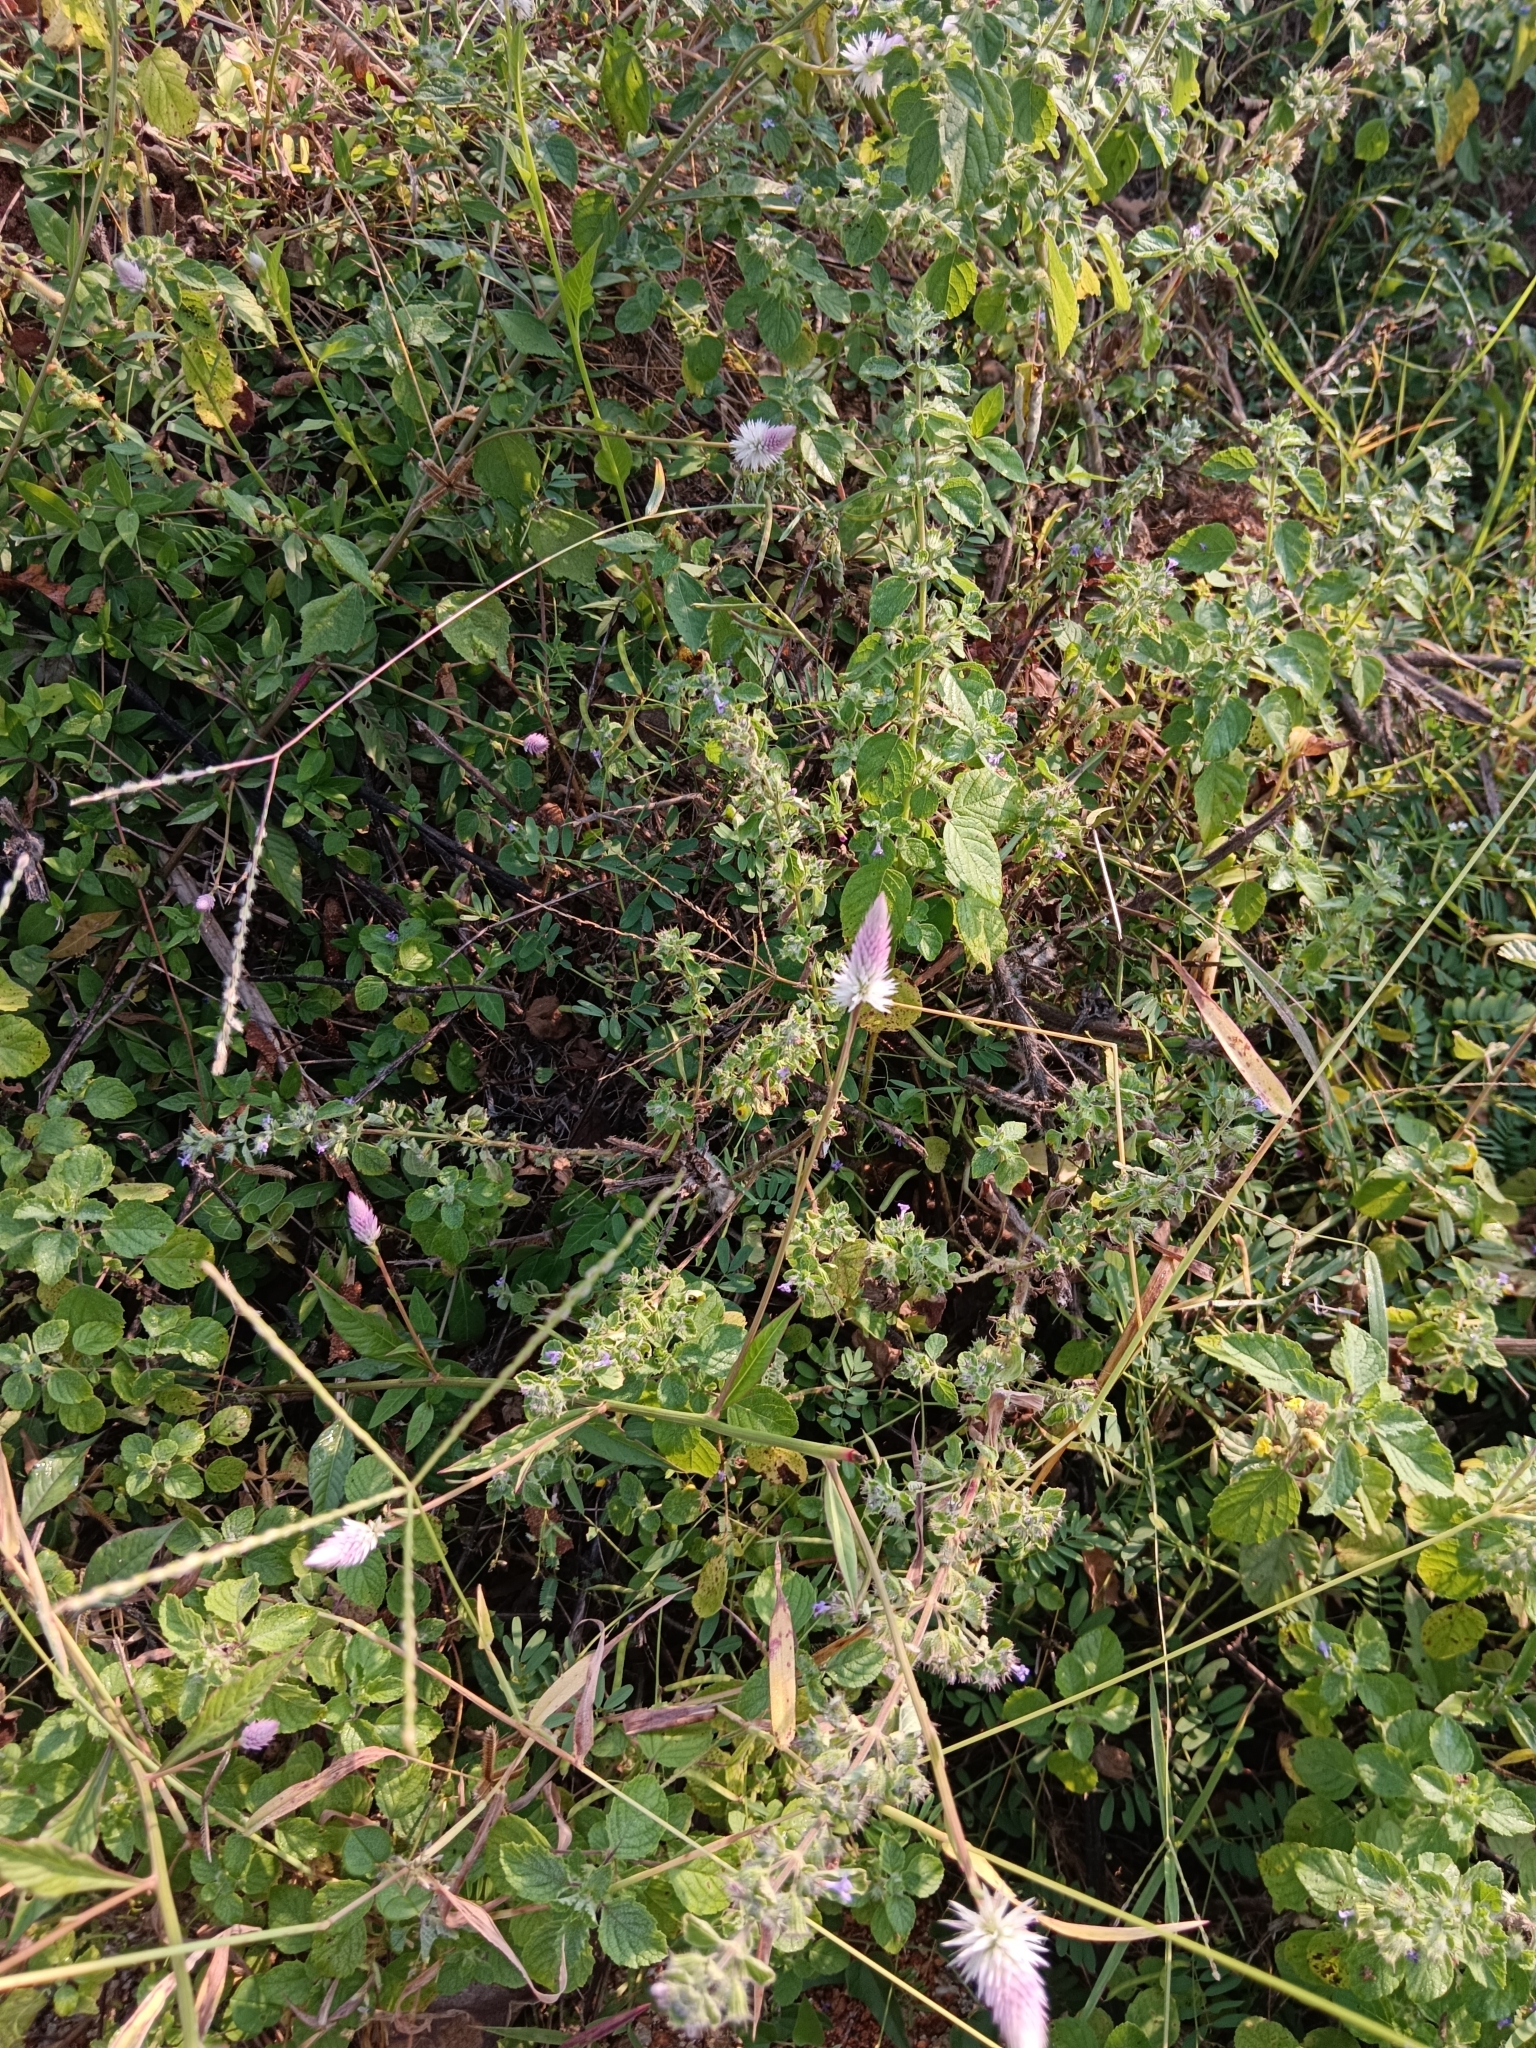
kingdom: Plantae
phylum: Tracheophyta
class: Magnoliopsida
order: Caryophyllales
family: Amaranthaceae
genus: Celosia
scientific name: Celosia argentea
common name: Feather cockscomb
